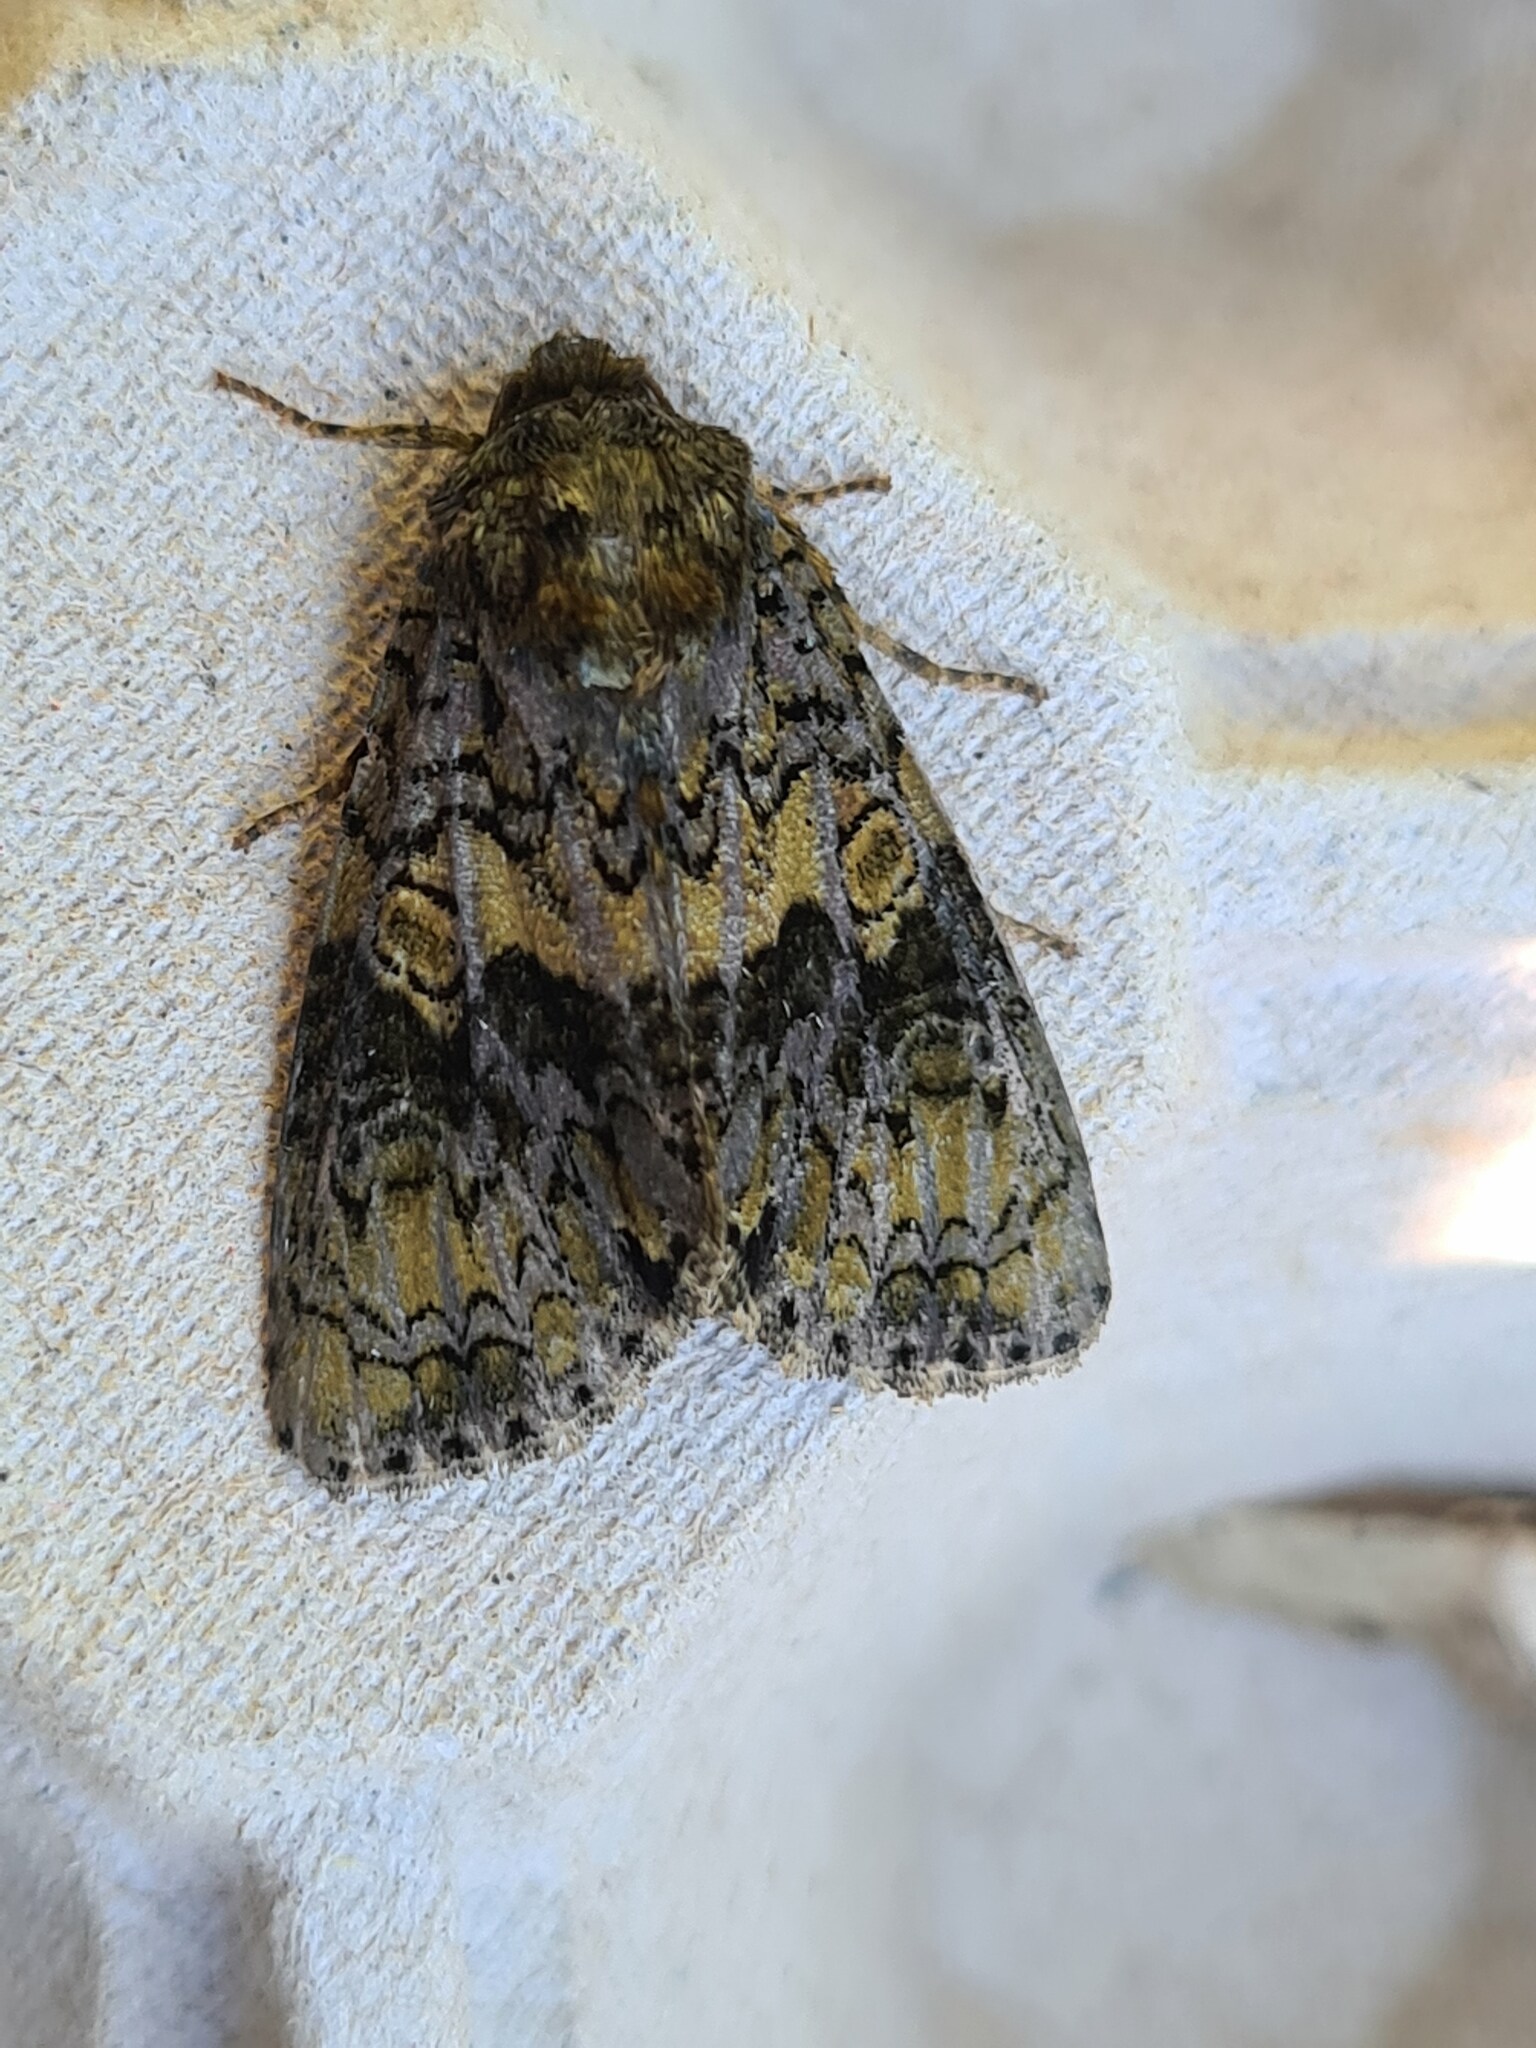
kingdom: Animalia
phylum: Arthropoda
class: Insecta
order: Lepidoptera
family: Noctuidae
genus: Craniophora
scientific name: Craniophora ligustri
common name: Coronet
